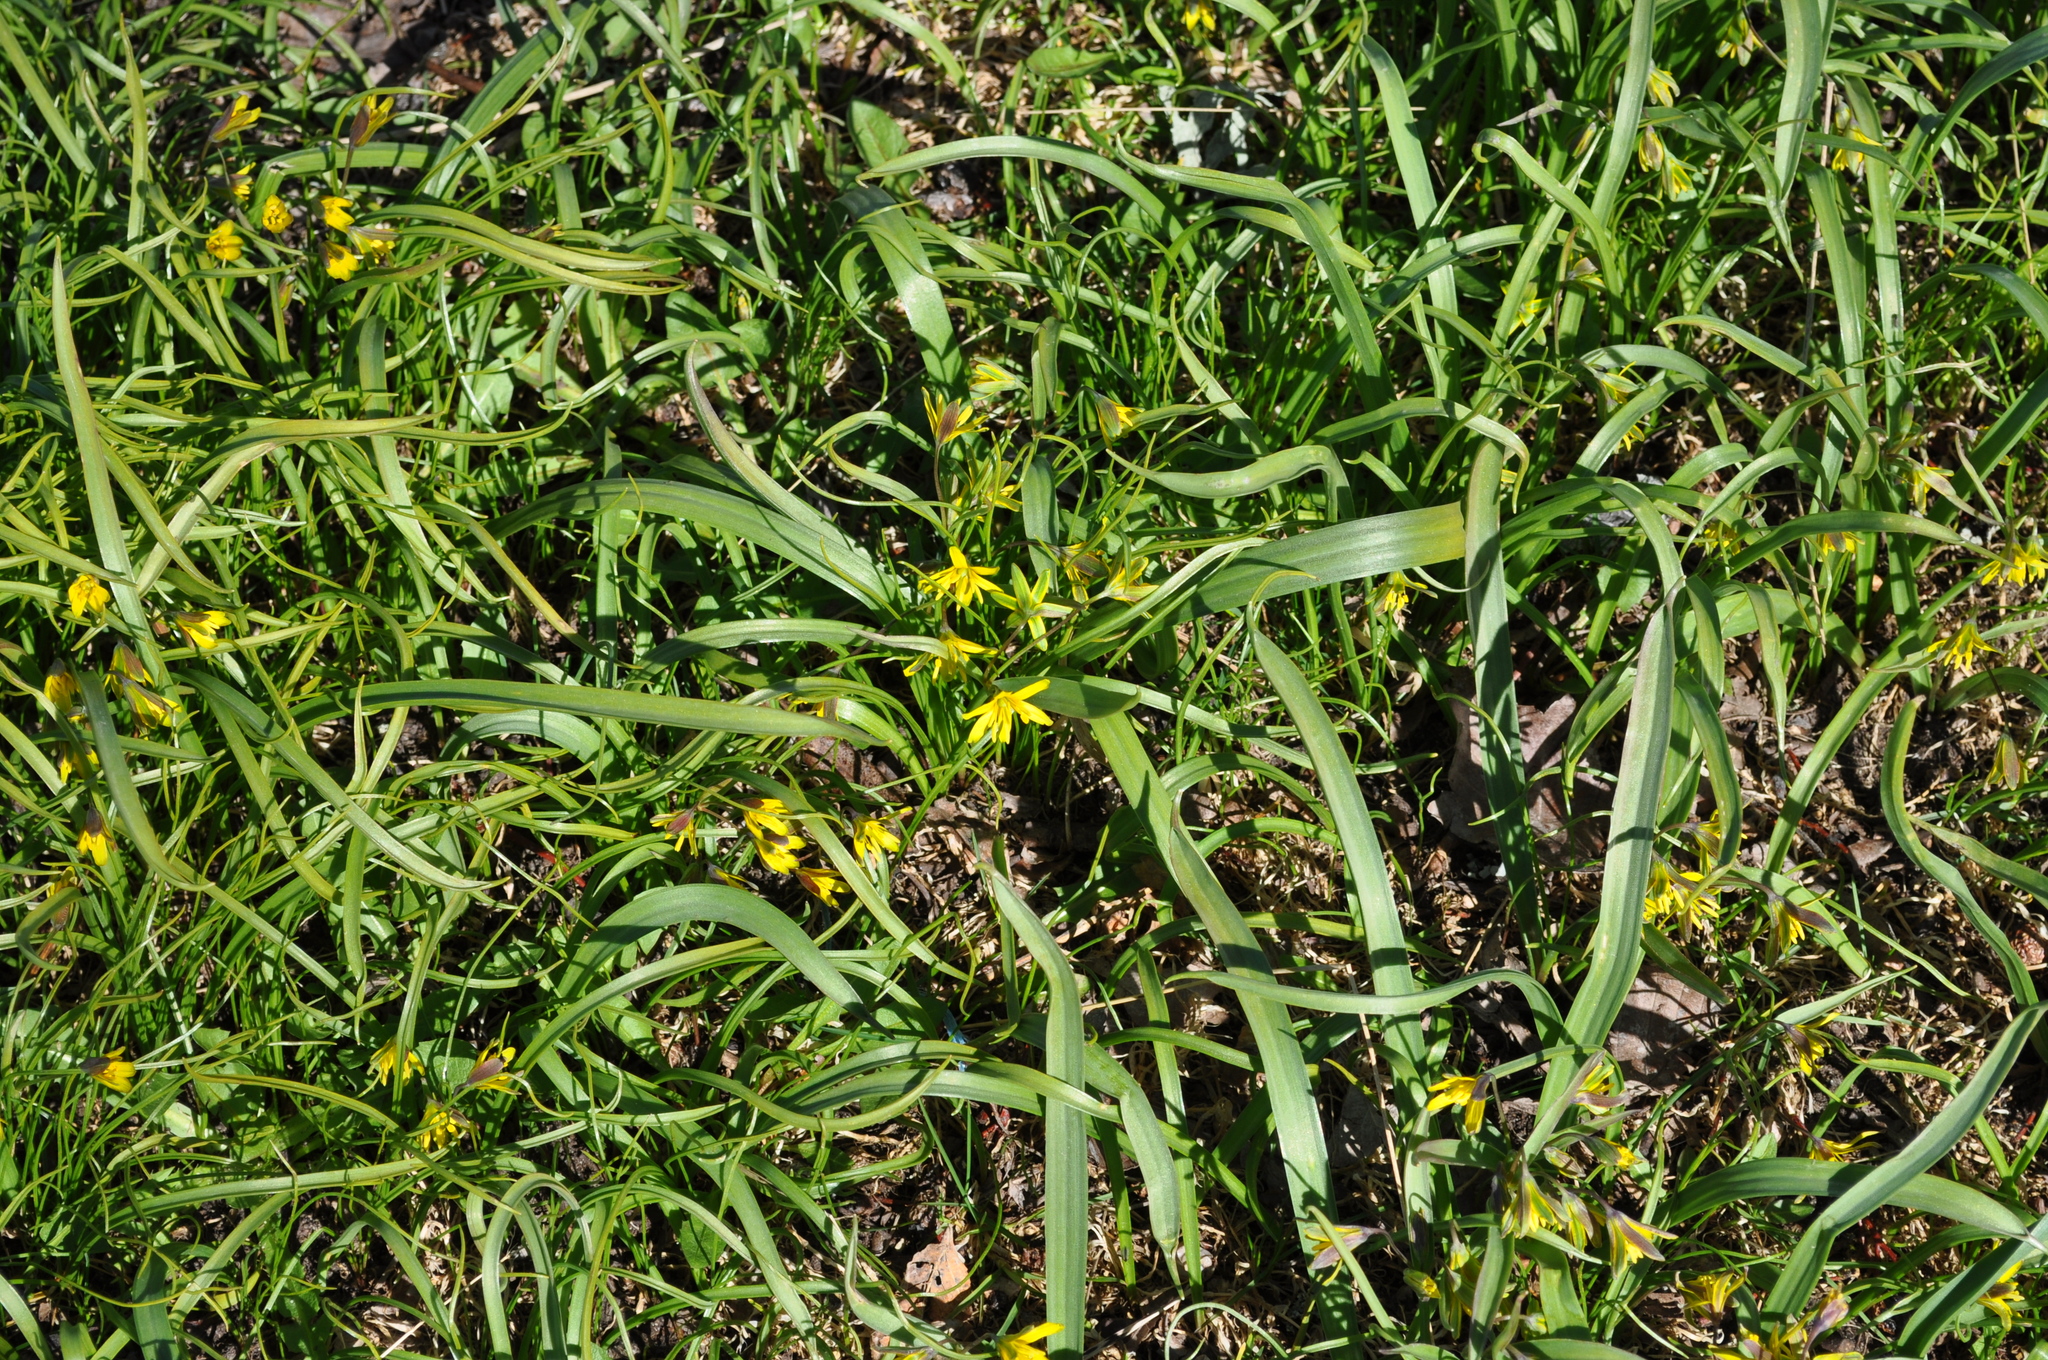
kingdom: Plantae
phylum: Tracheophyta
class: Liliopsida
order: Liliales
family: Liliaceae
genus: Gagea
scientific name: Gagea lutea
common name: Yellow star-of-bethlehem
